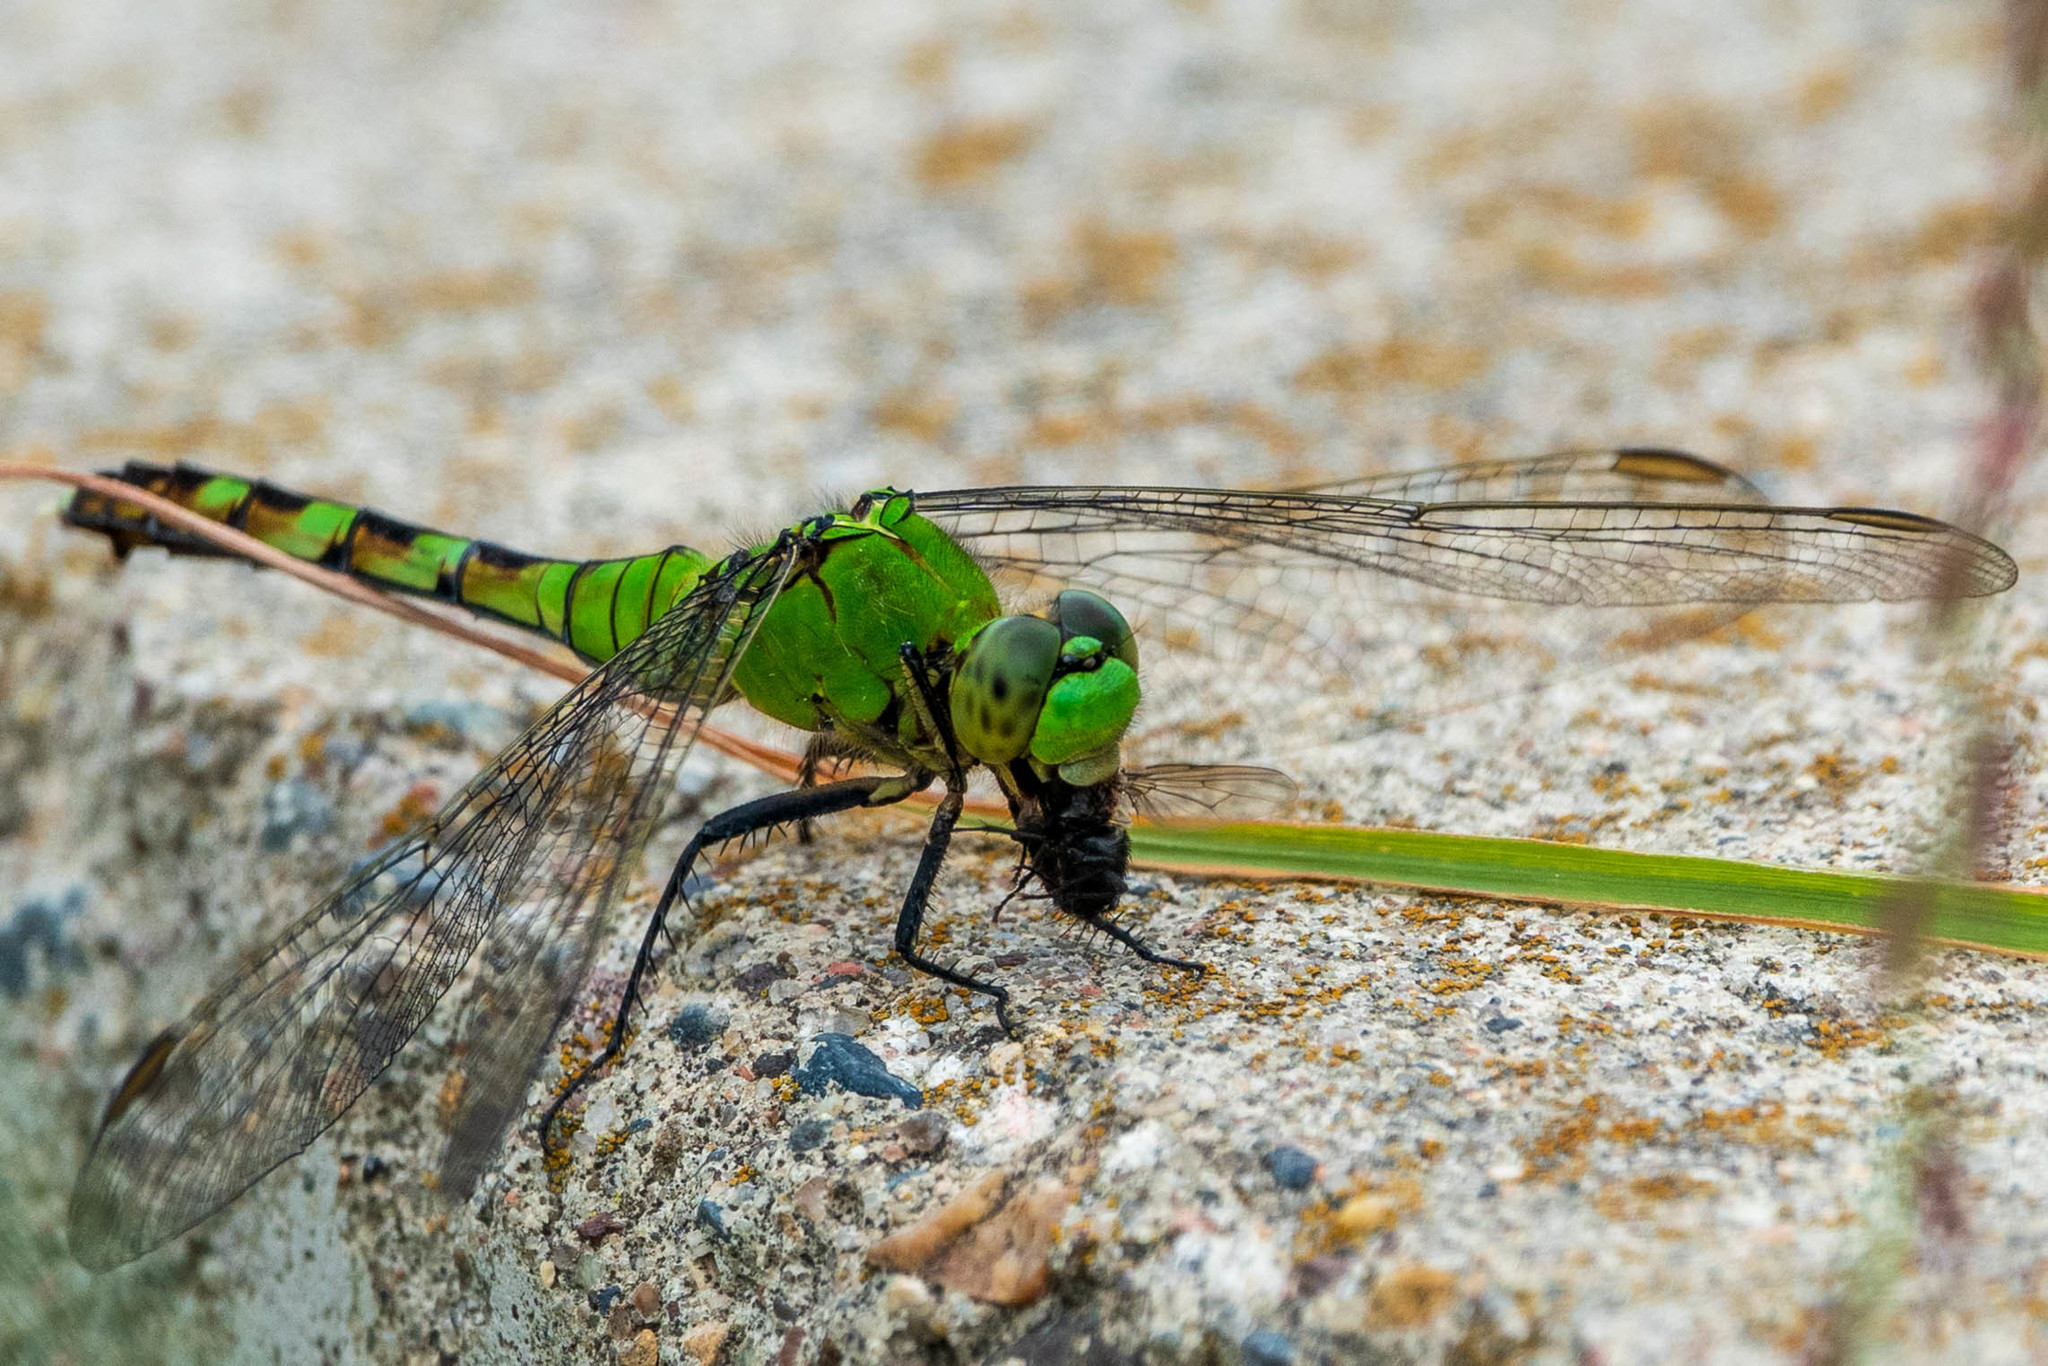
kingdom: Animalia
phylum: Arthropoda
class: Insecta
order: Odonata
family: Libellulidae
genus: Erythemis
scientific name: Erythemis simplicicollis
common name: Eastern pondhawk
